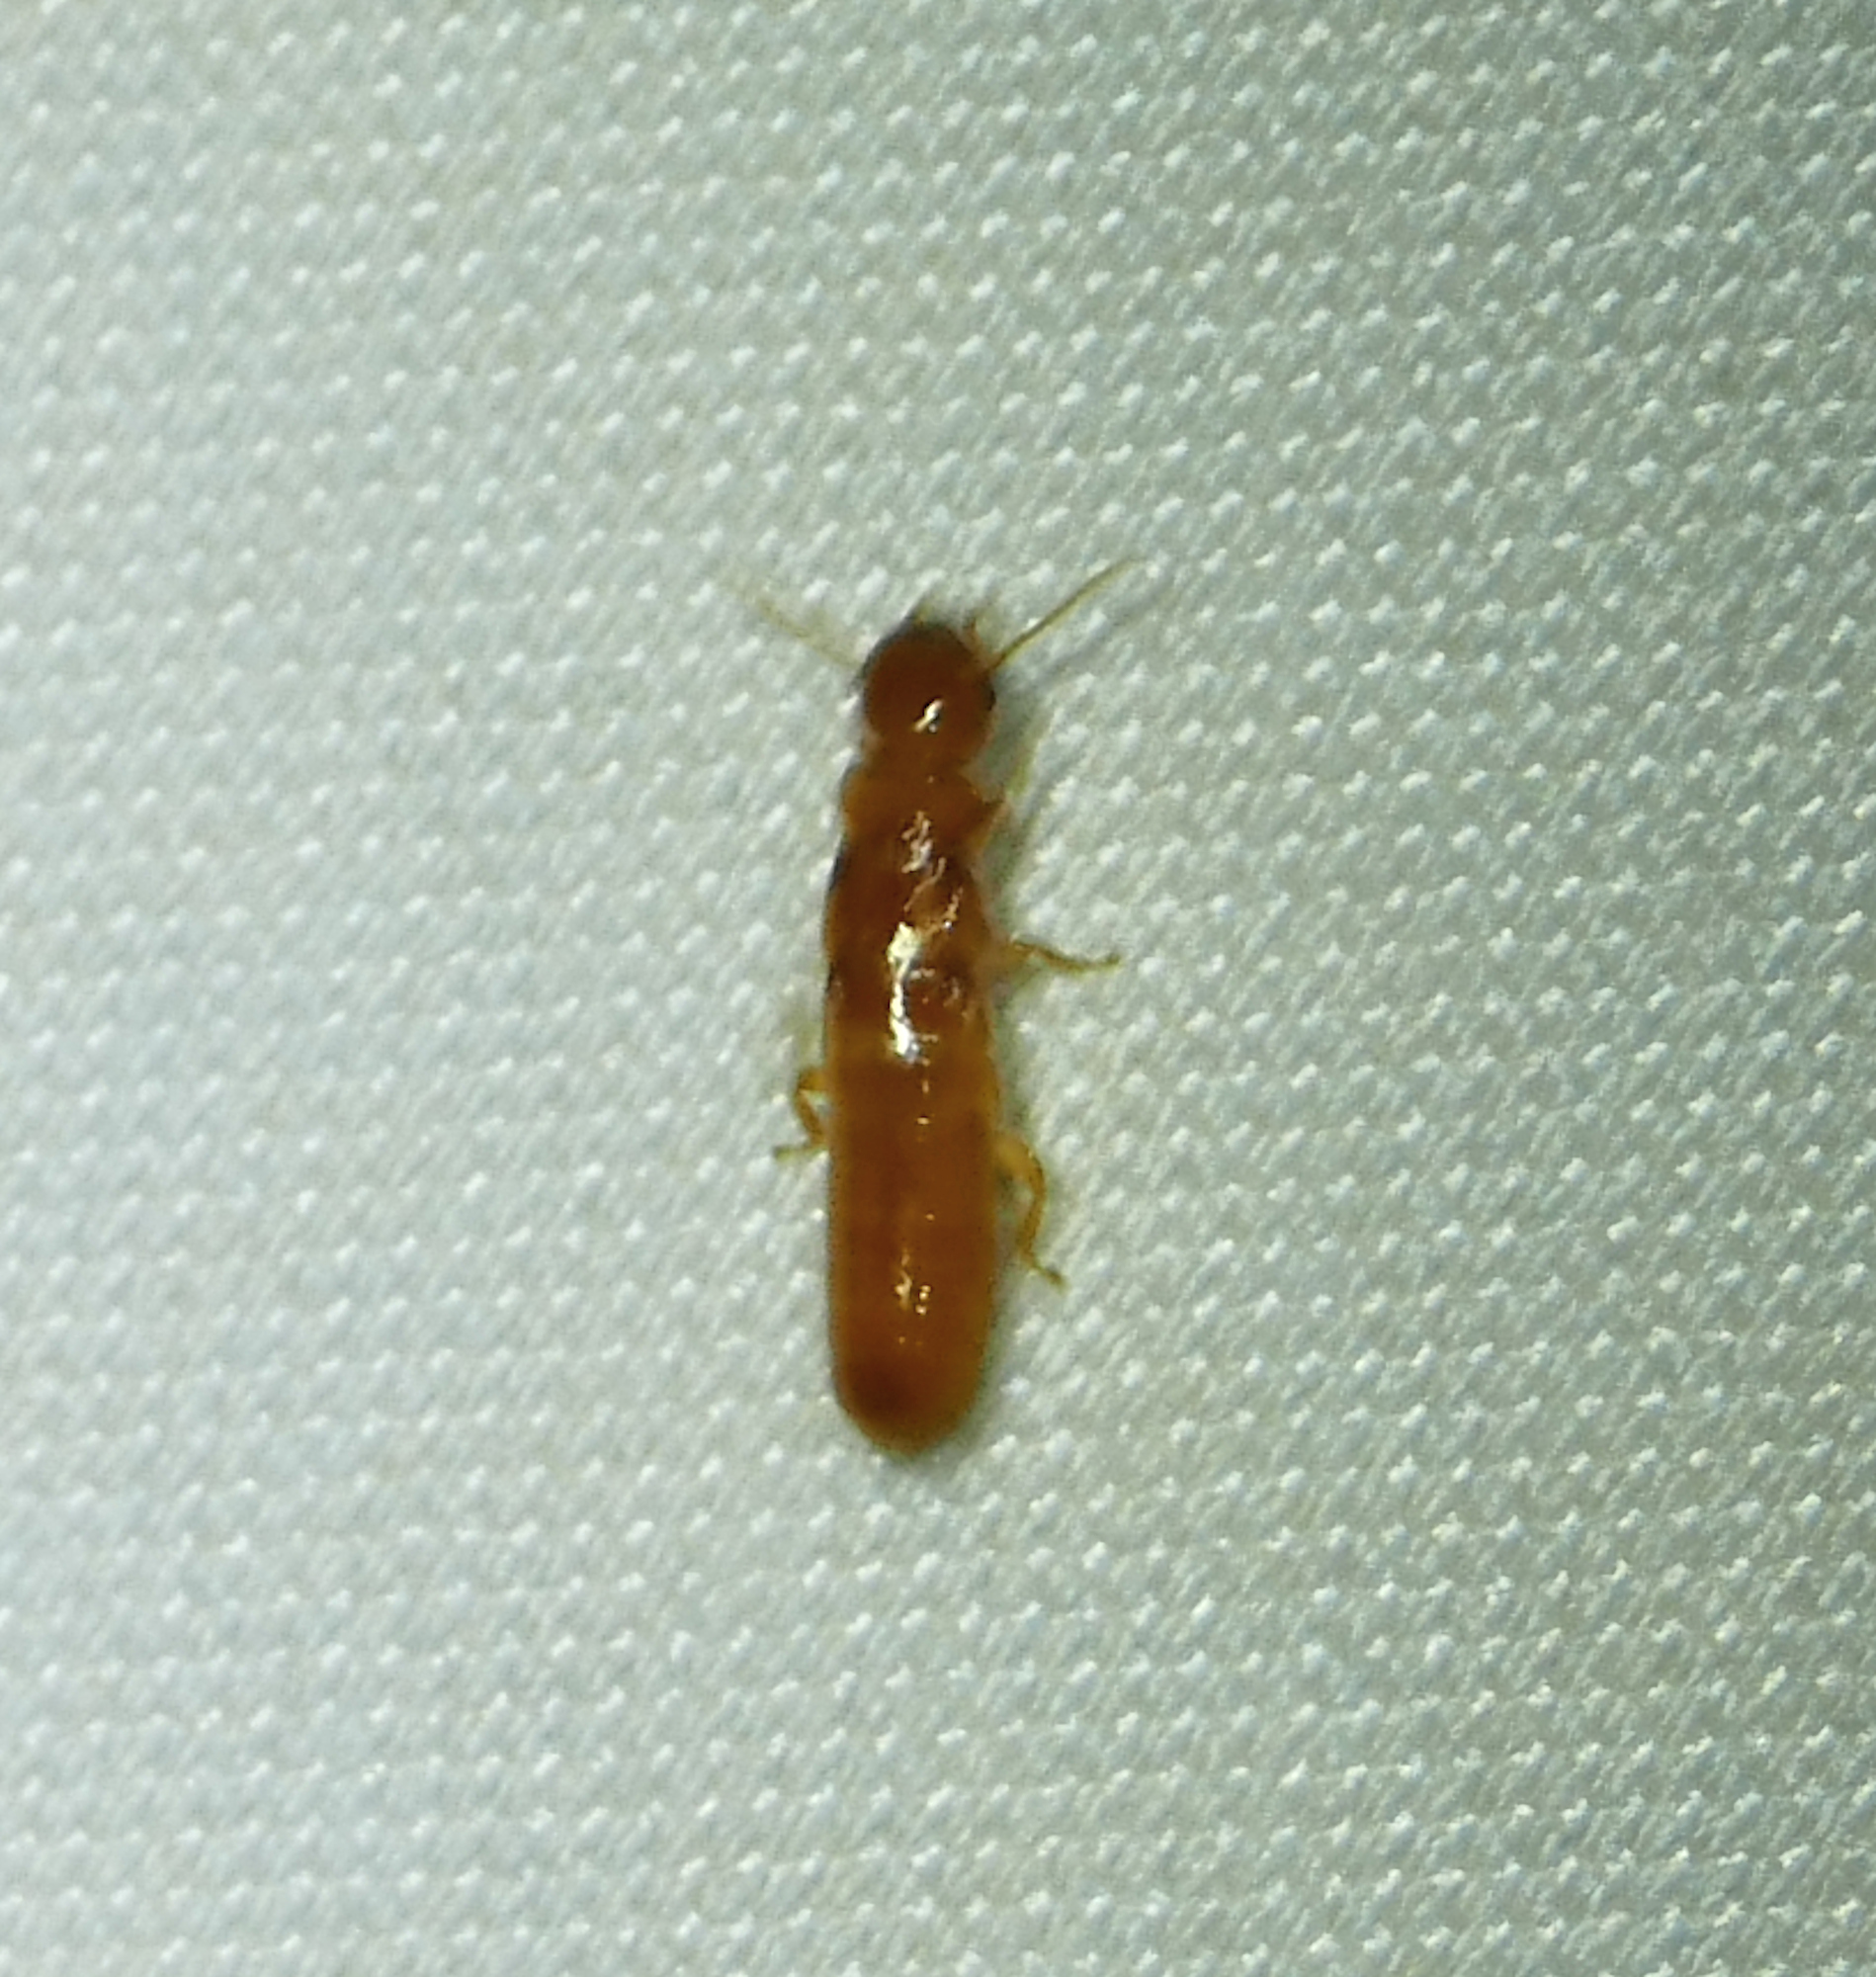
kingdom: Animalia
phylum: Arthropoda
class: Insecta
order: Blattodea
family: Kalotermitidae
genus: Marginitermes
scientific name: Marginitermes hubbardi
